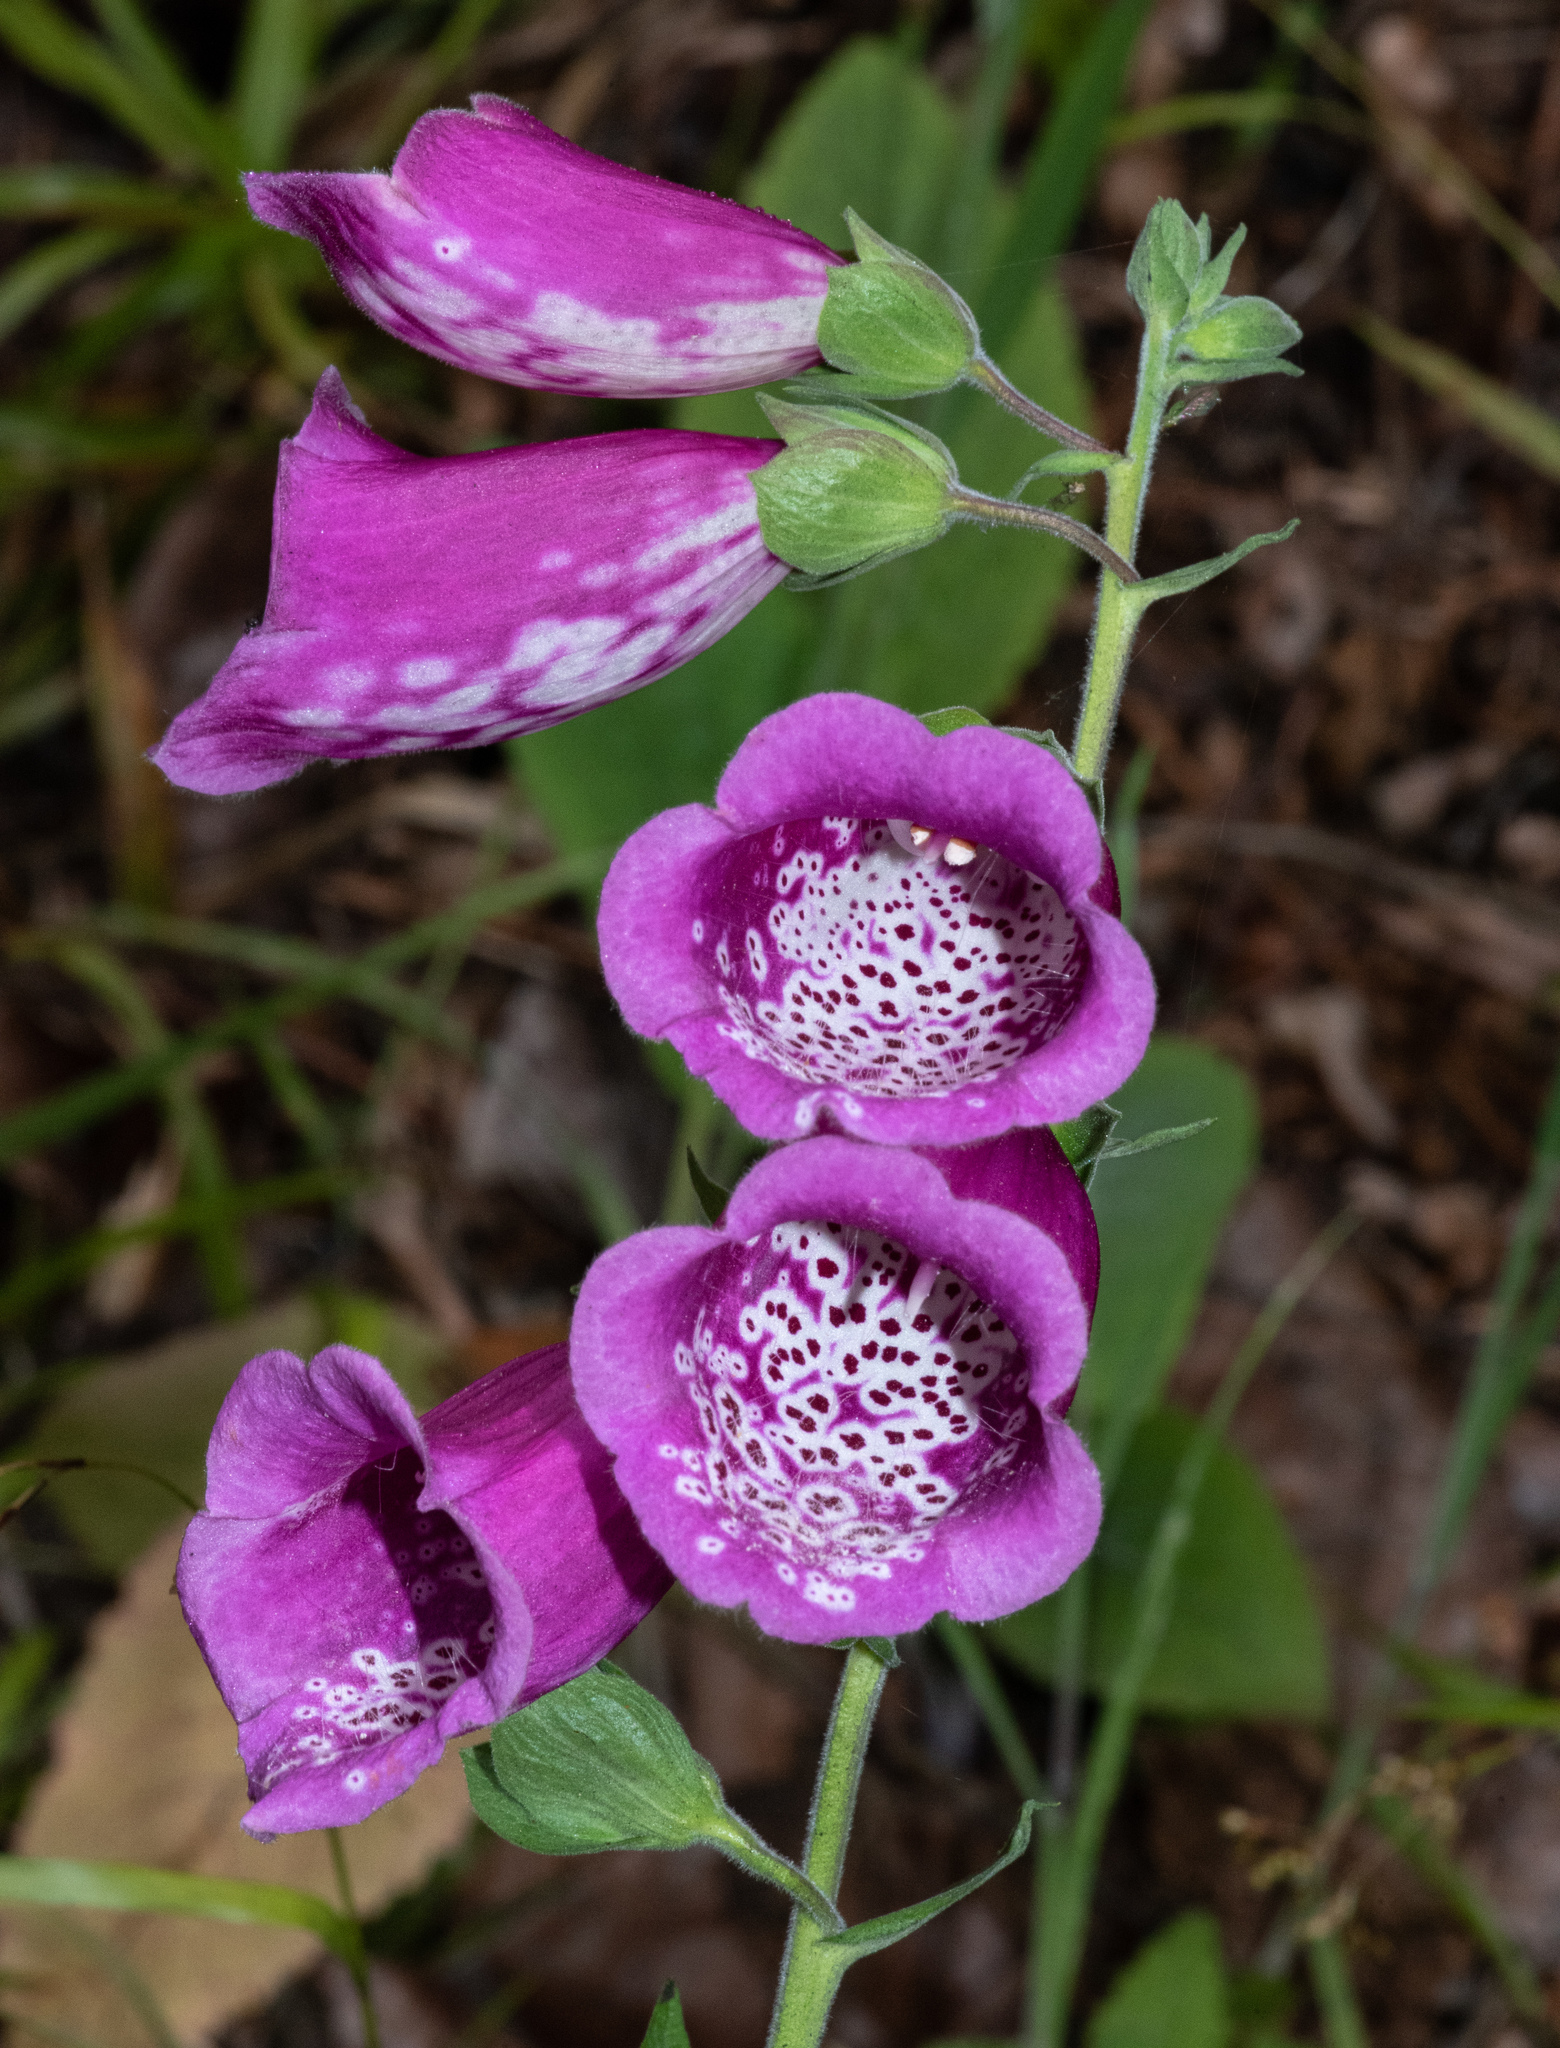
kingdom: Plantae
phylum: Tracheophyta
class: Magnoliopsida
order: Lamiales
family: Plantaginaceae
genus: Digitalis
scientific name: Digitalis purpurea
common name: Foxglove
